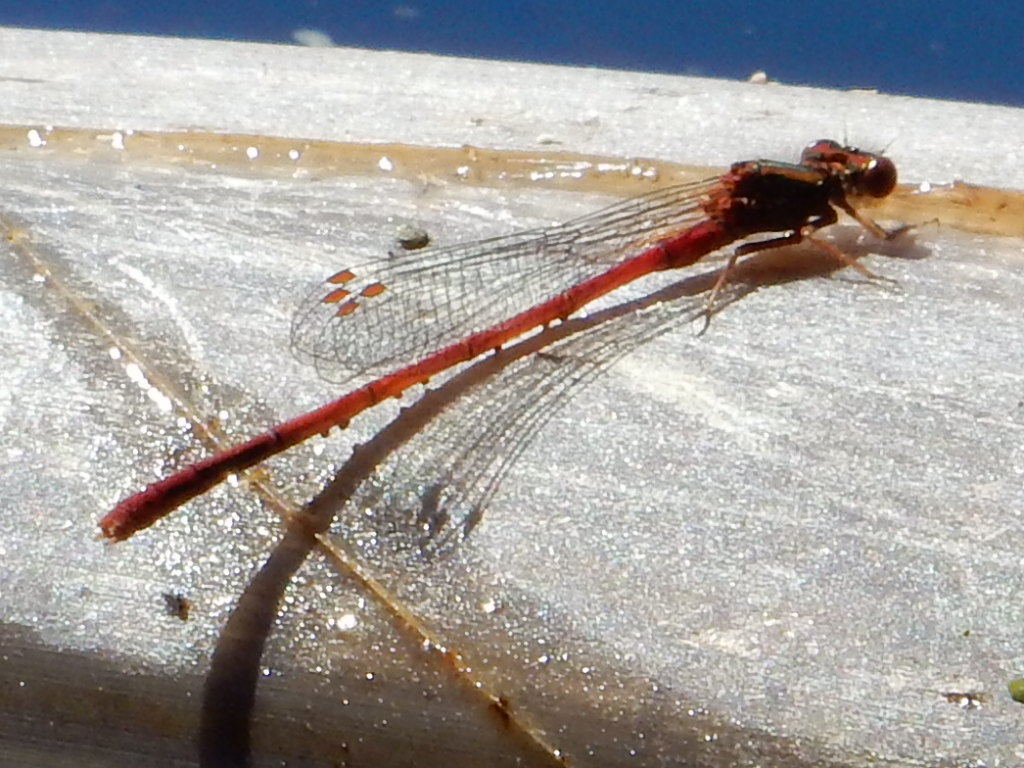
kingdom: Animalia
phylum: Arthropoda
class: Insecta
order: Odonata
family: Coenagrionidae
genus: Xanthocnemis
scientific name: Xanthocnemis zealandica
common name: Common redcoat damselfly
